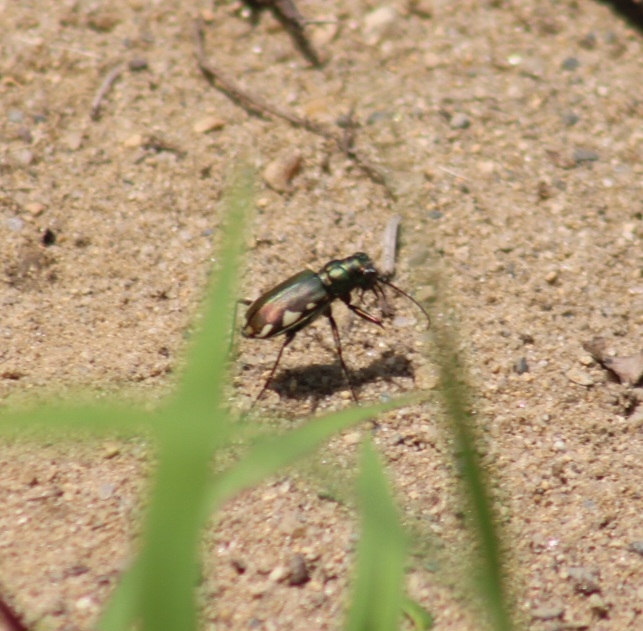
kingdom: Animalia
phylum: Arthropoda
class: Insecta
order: Coleoptera
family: Carabidae
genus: Cicindela
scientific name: Cicindela scutellaris
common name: Festive tiger beetle
